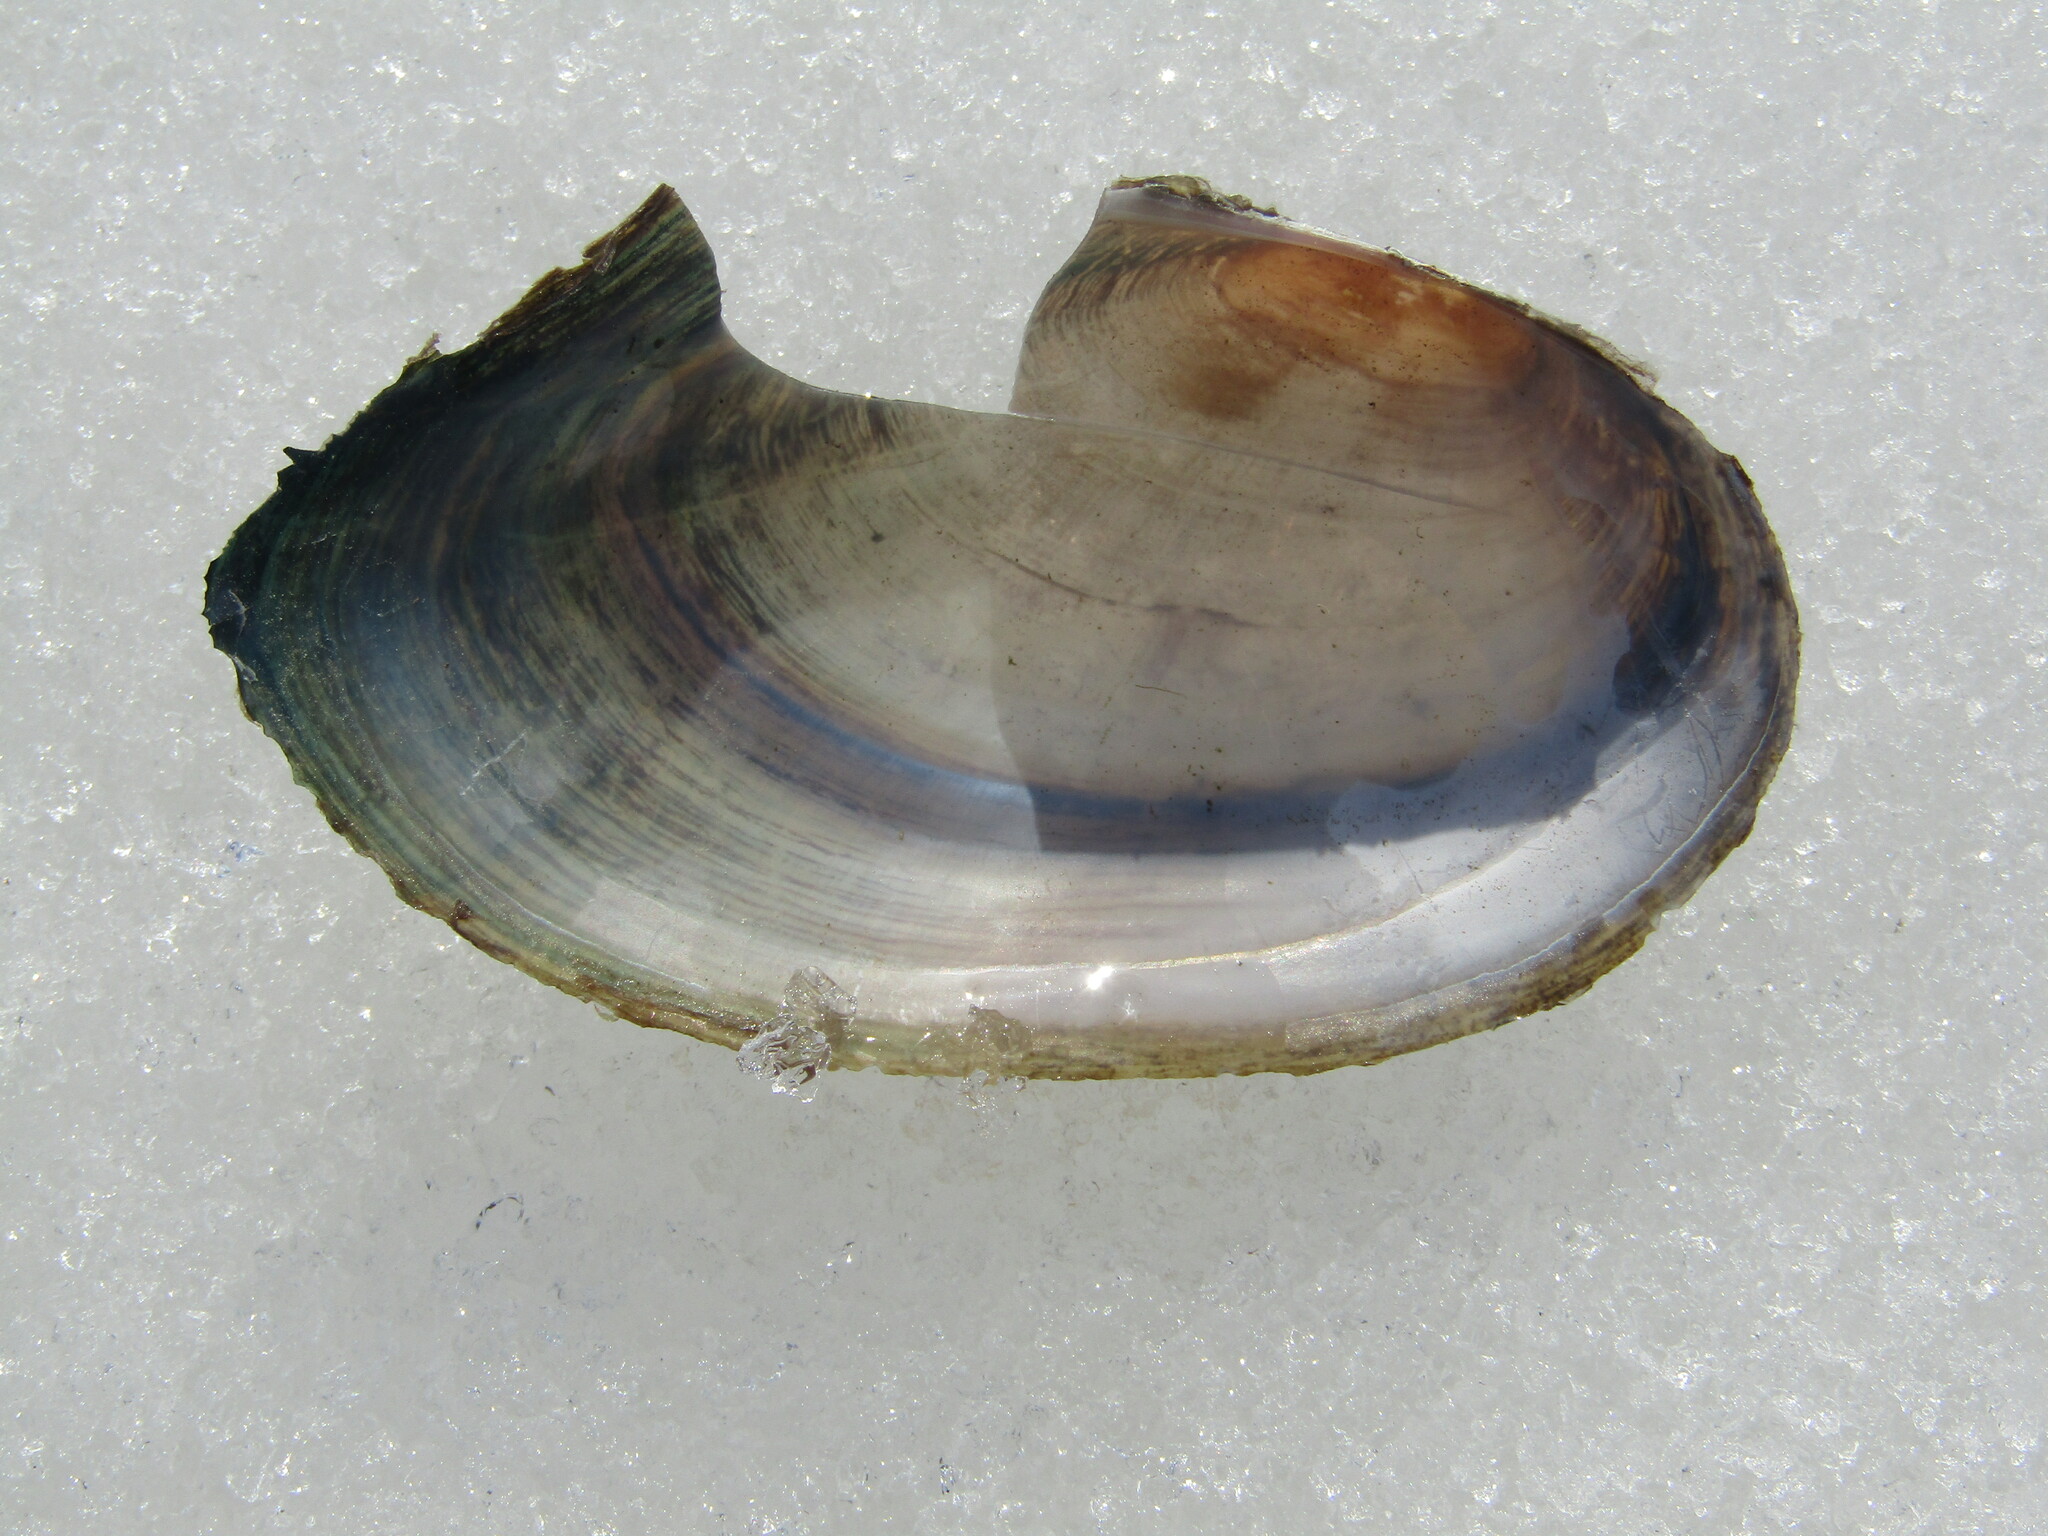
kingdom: Animalia
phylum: Mollusca
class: Bivalvia
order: Unionida
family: Unionidae
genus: Anodonta
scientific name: Anodonta anatina
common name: Duck mussel
